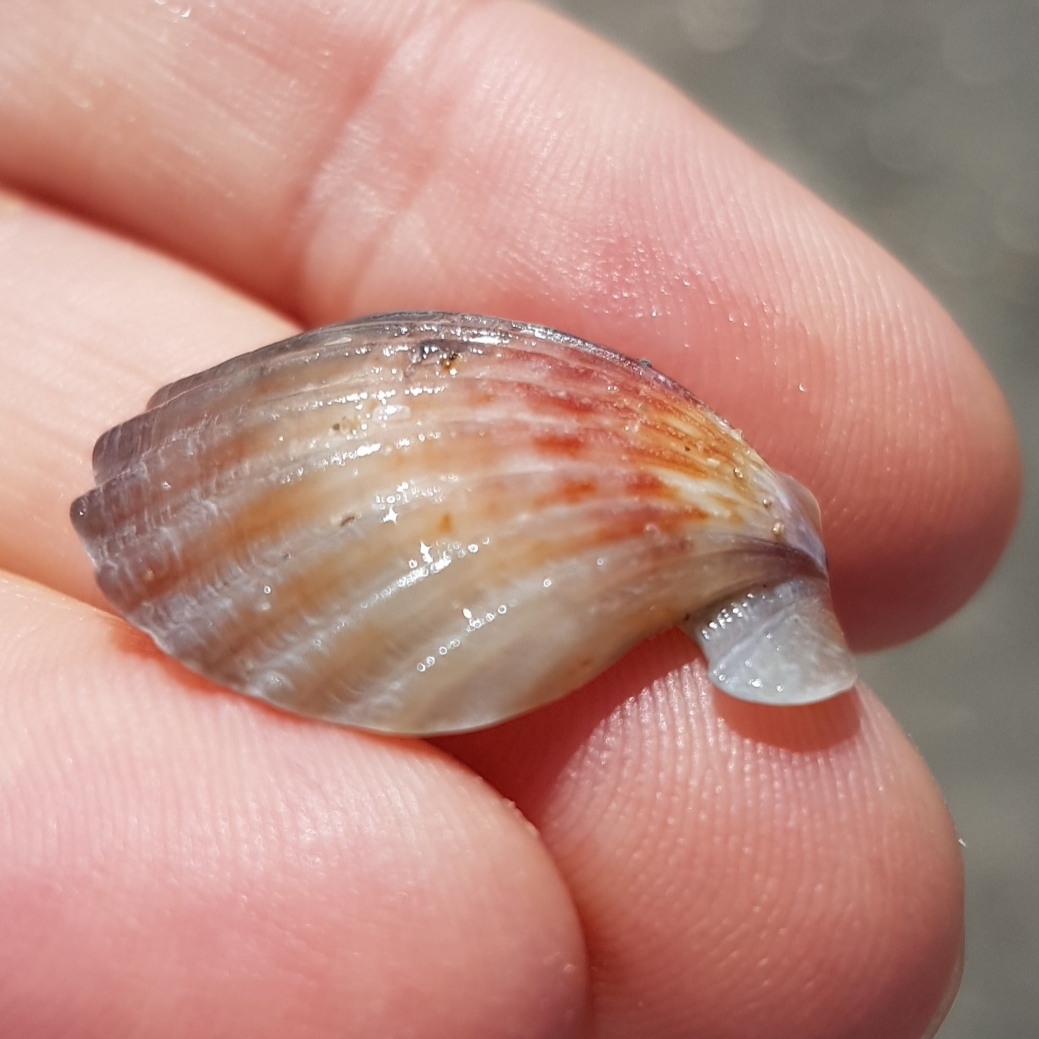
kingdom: Animalia
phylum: Mollusca
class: Bivalvia
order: Pectinida
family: Pectinidae
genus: Flexopecten
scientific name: Flexopecten glaber
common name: Smooth scallop
